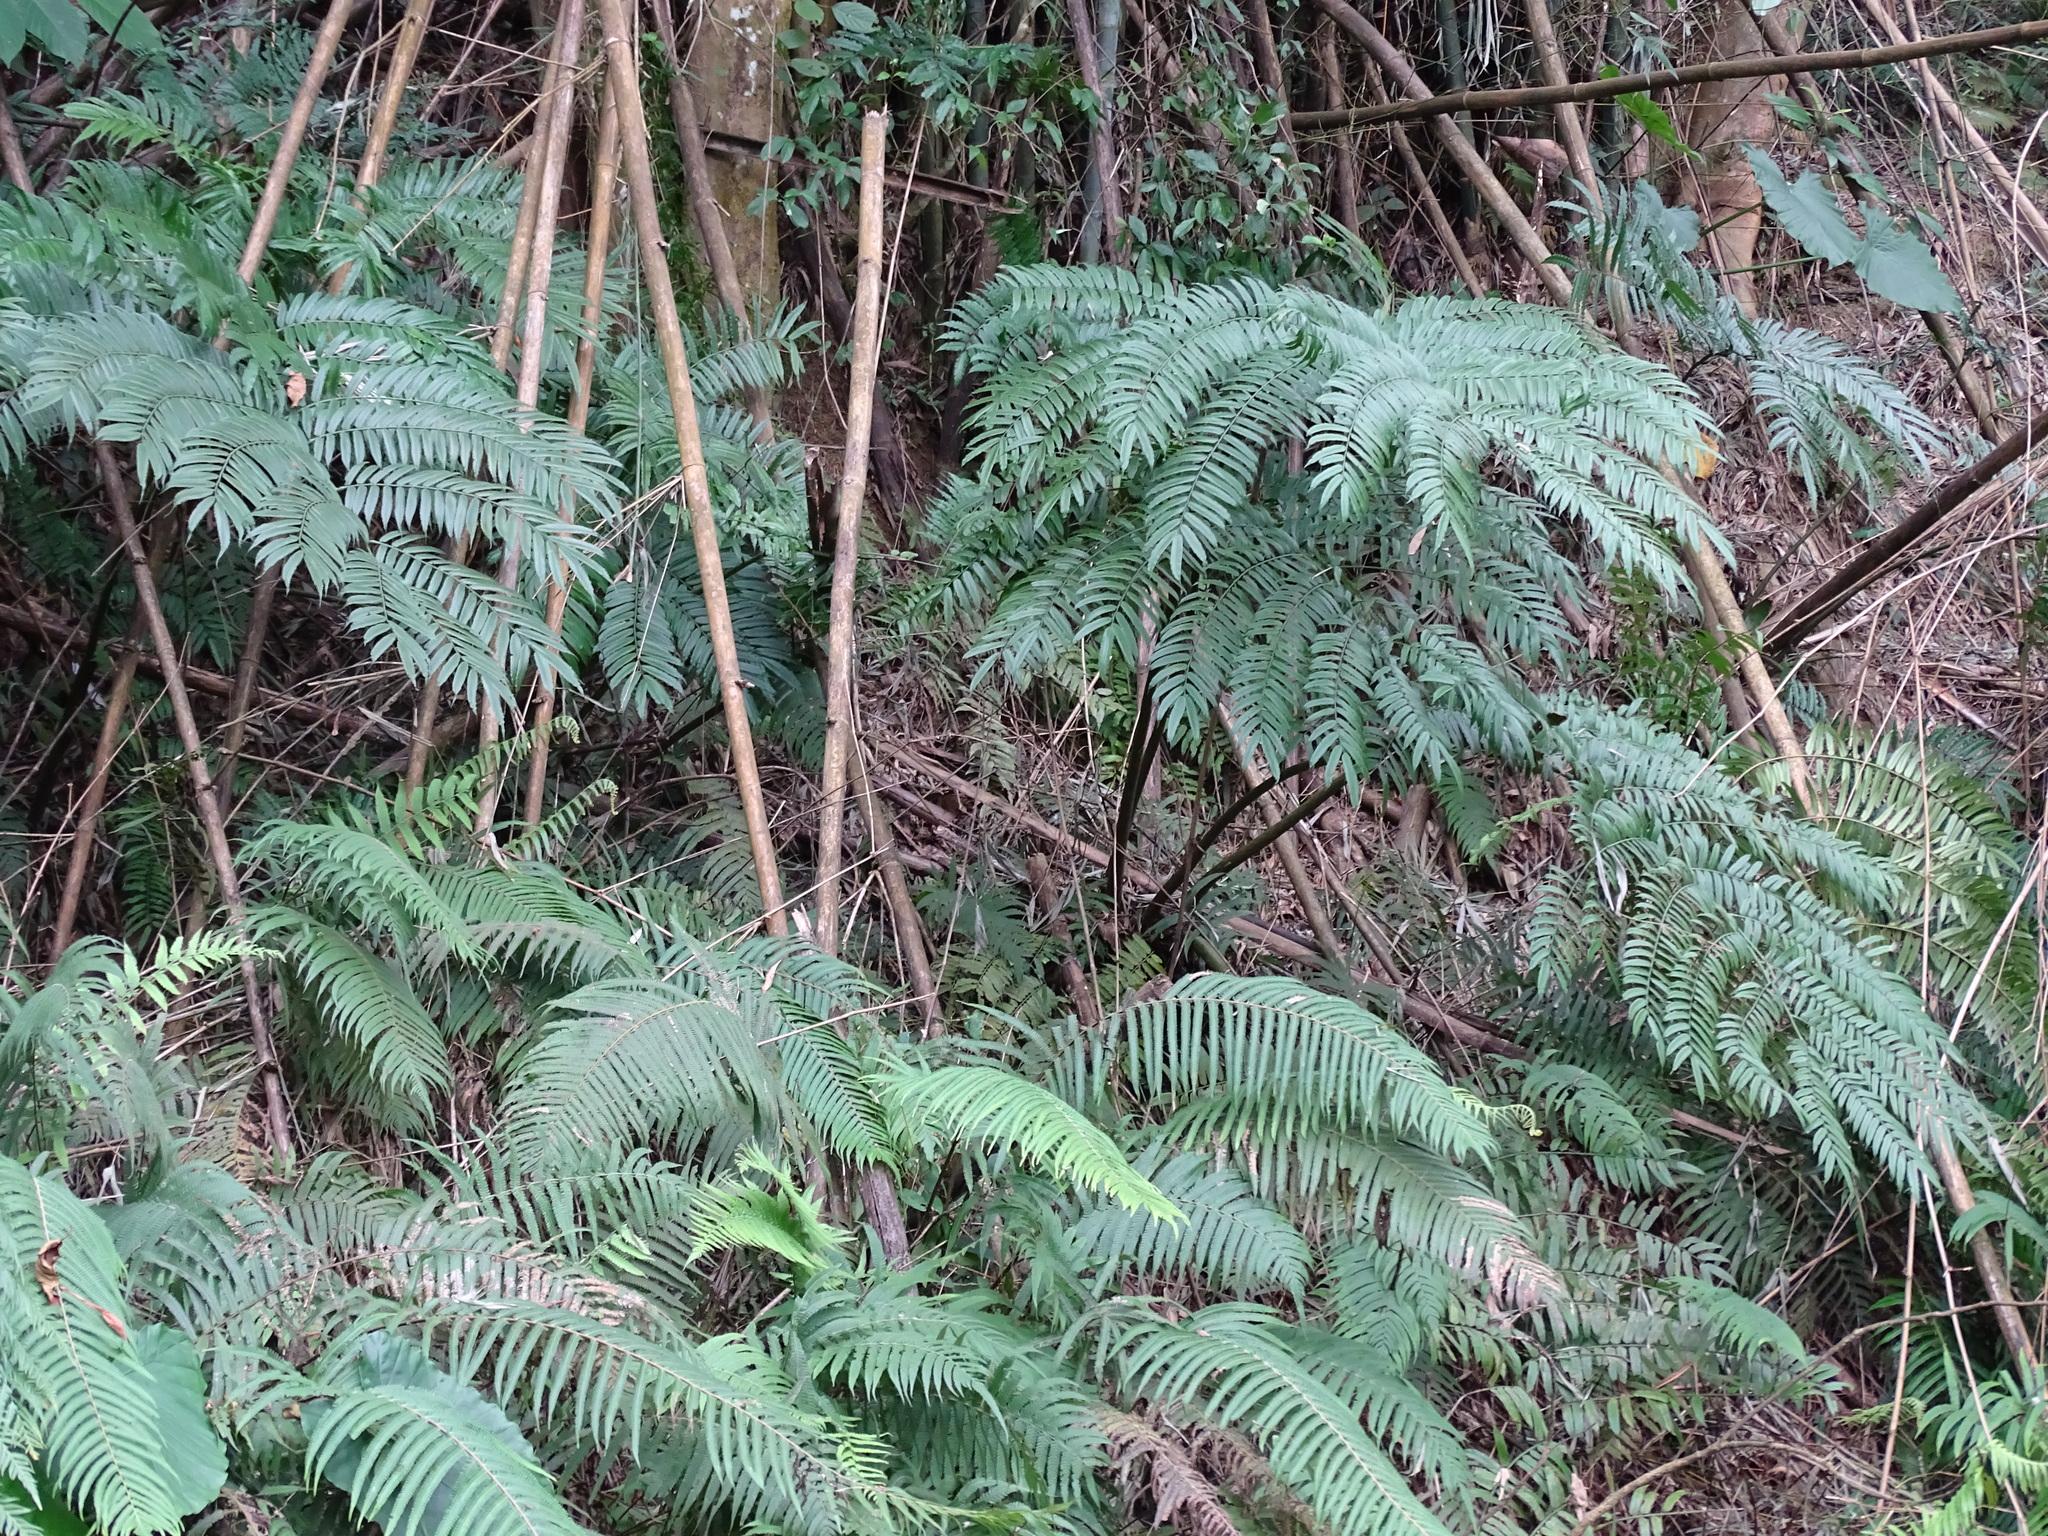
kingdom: Plantae
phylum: Tracheophyta
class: Polypodiopsida
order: Marattiales
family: Marattiaceae
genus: Angiopteris
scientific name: Angiopteris lygodiifolia
